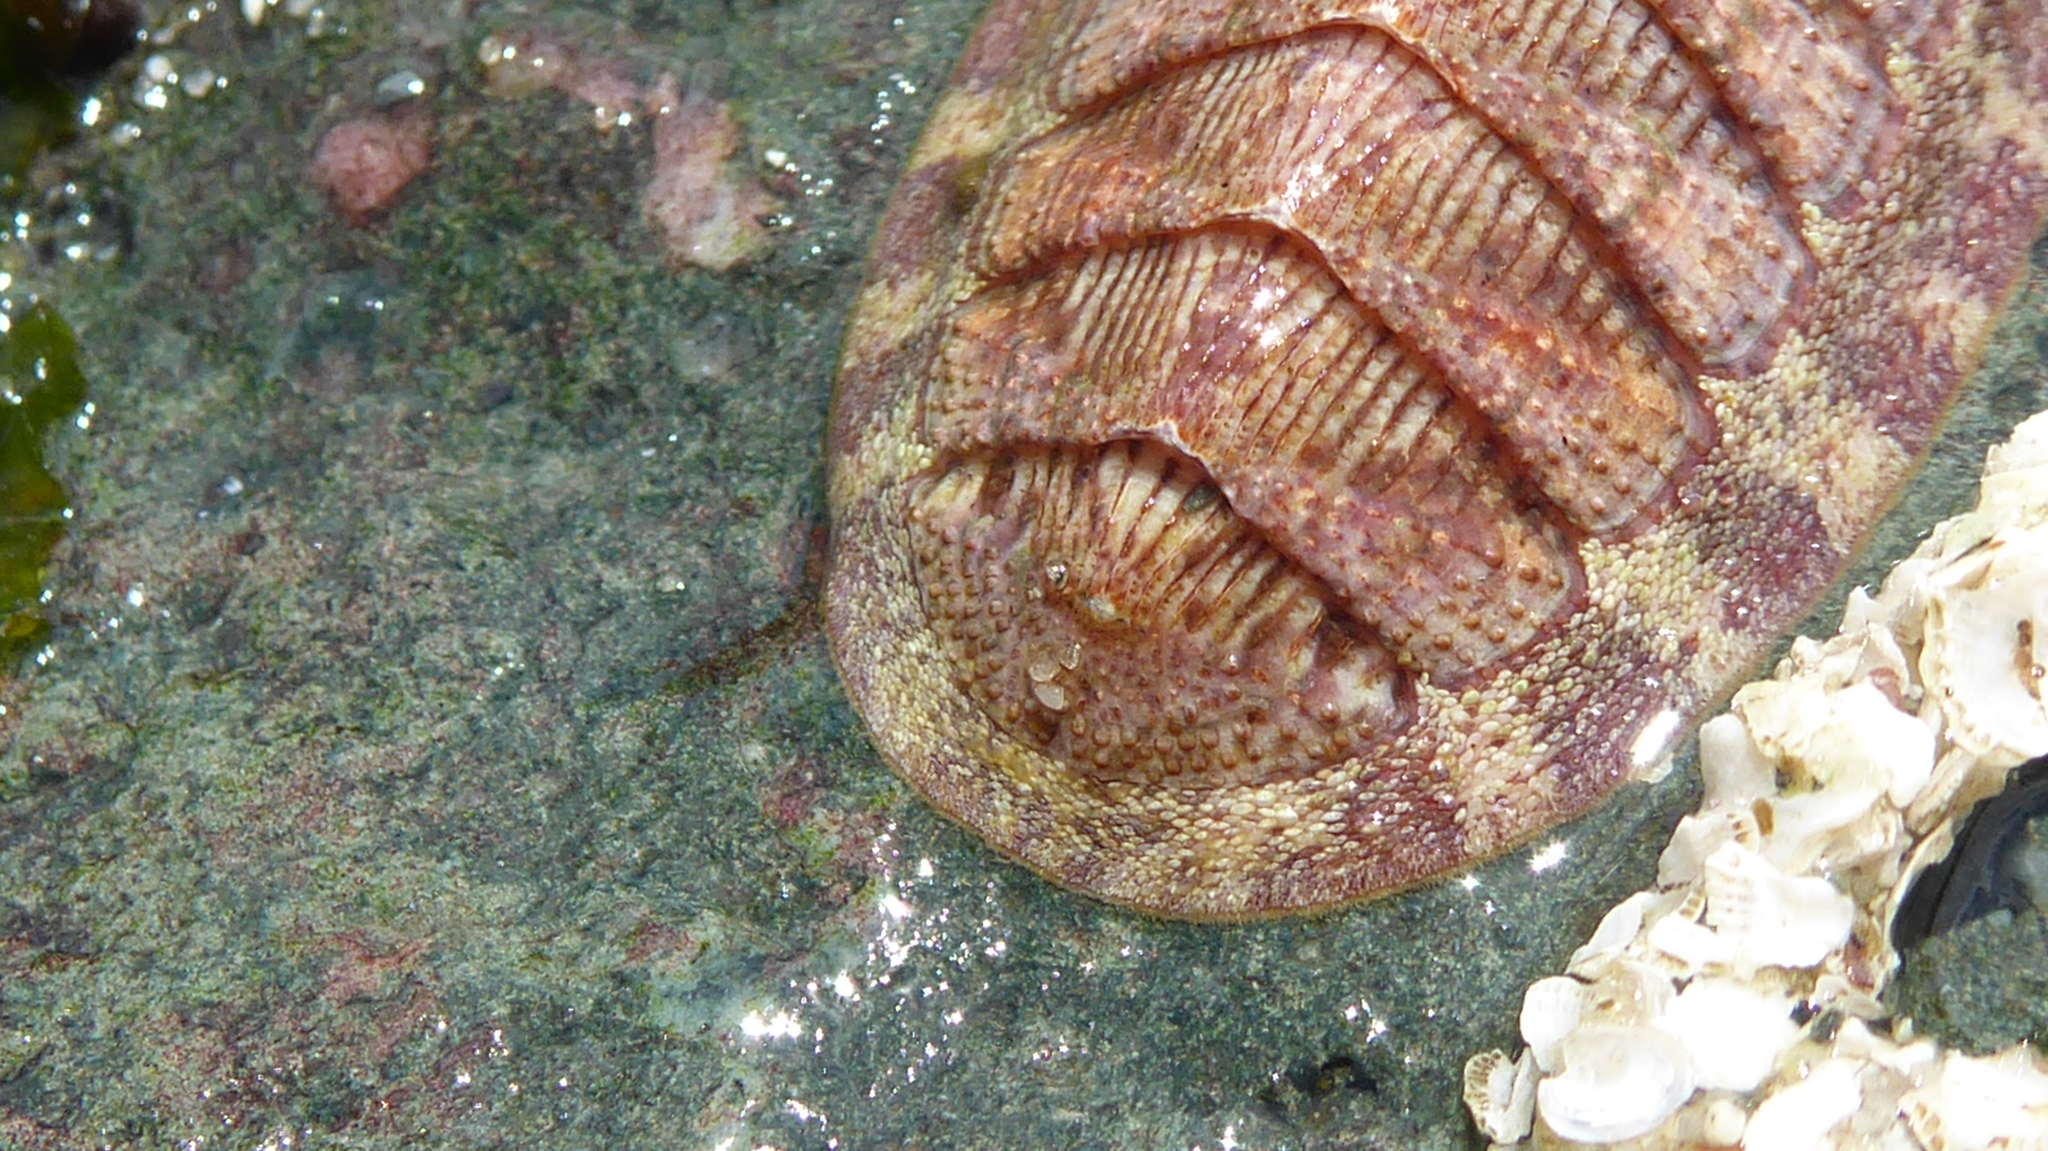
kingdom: Animalia
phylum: Mollusca
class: Polyplacophora
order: Chitonida
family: Ischnochitonidae
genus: Lepidozona
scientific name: Lepidozona mertensii
